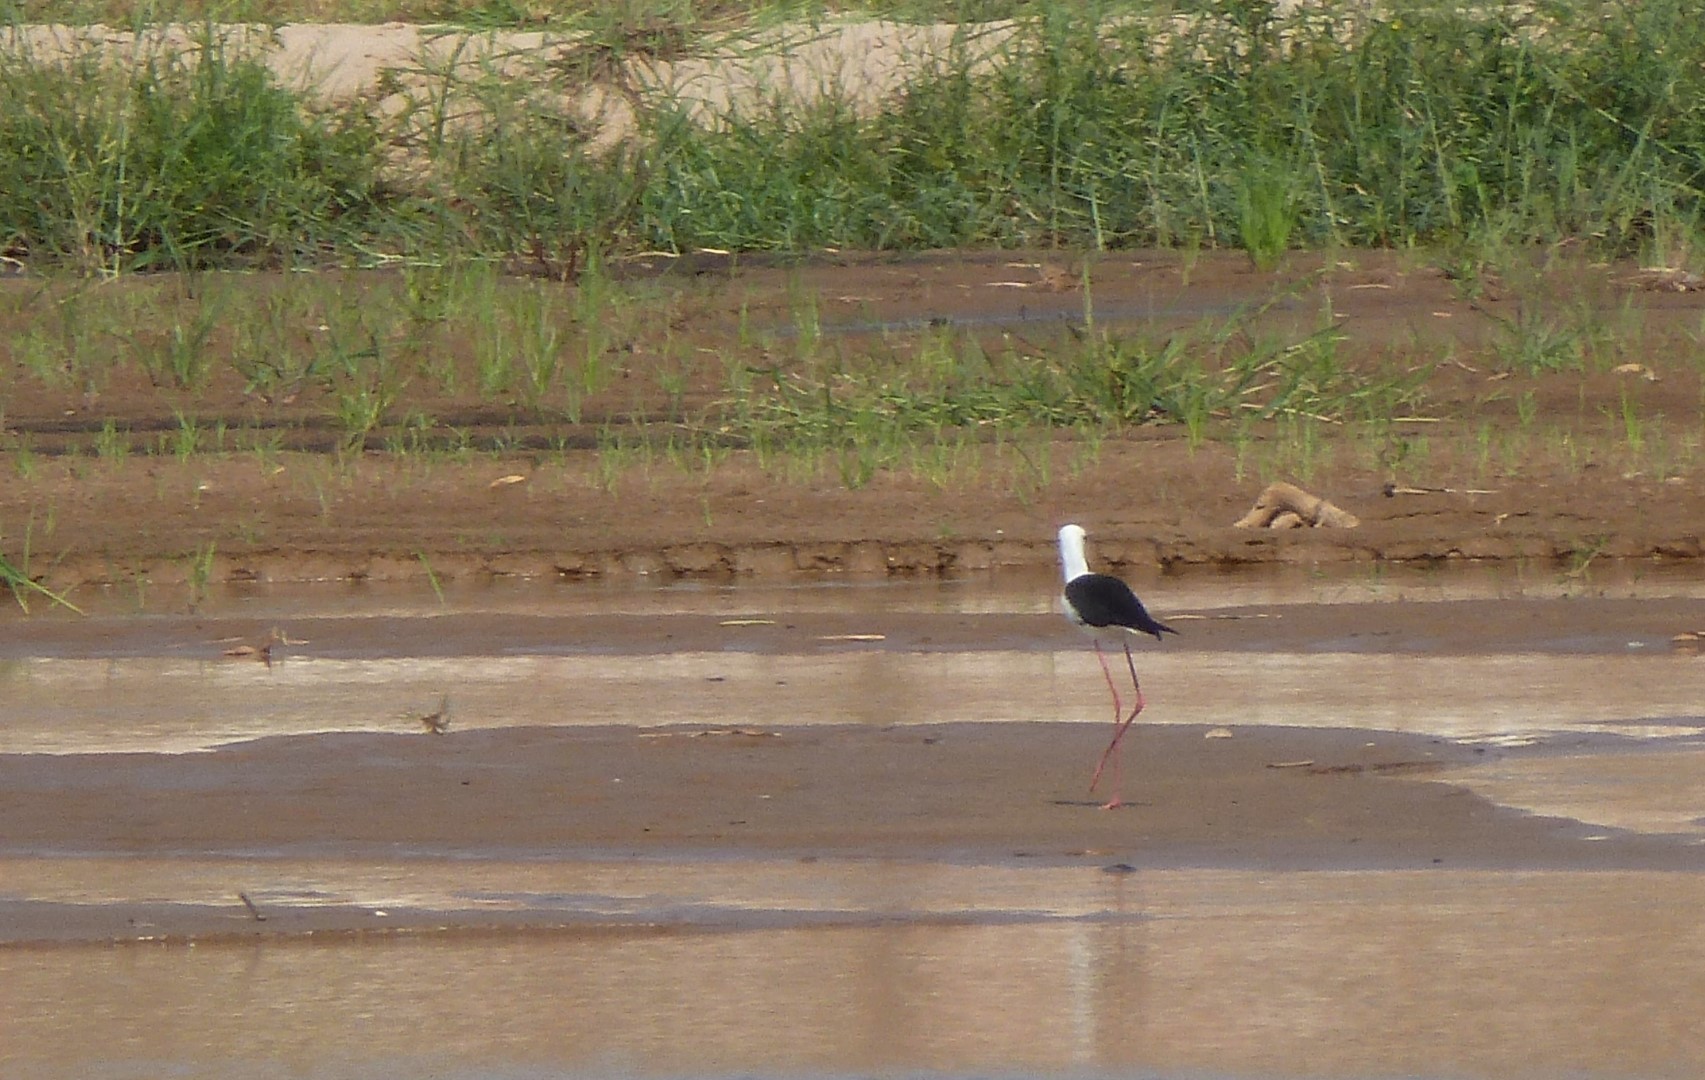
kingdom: Animalia
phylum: Chordata
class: Aves
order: Charadriiformes
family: Recurvirostridae
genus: Himantopus
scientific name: Himantopus himantopus
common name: Black-winged stilt
